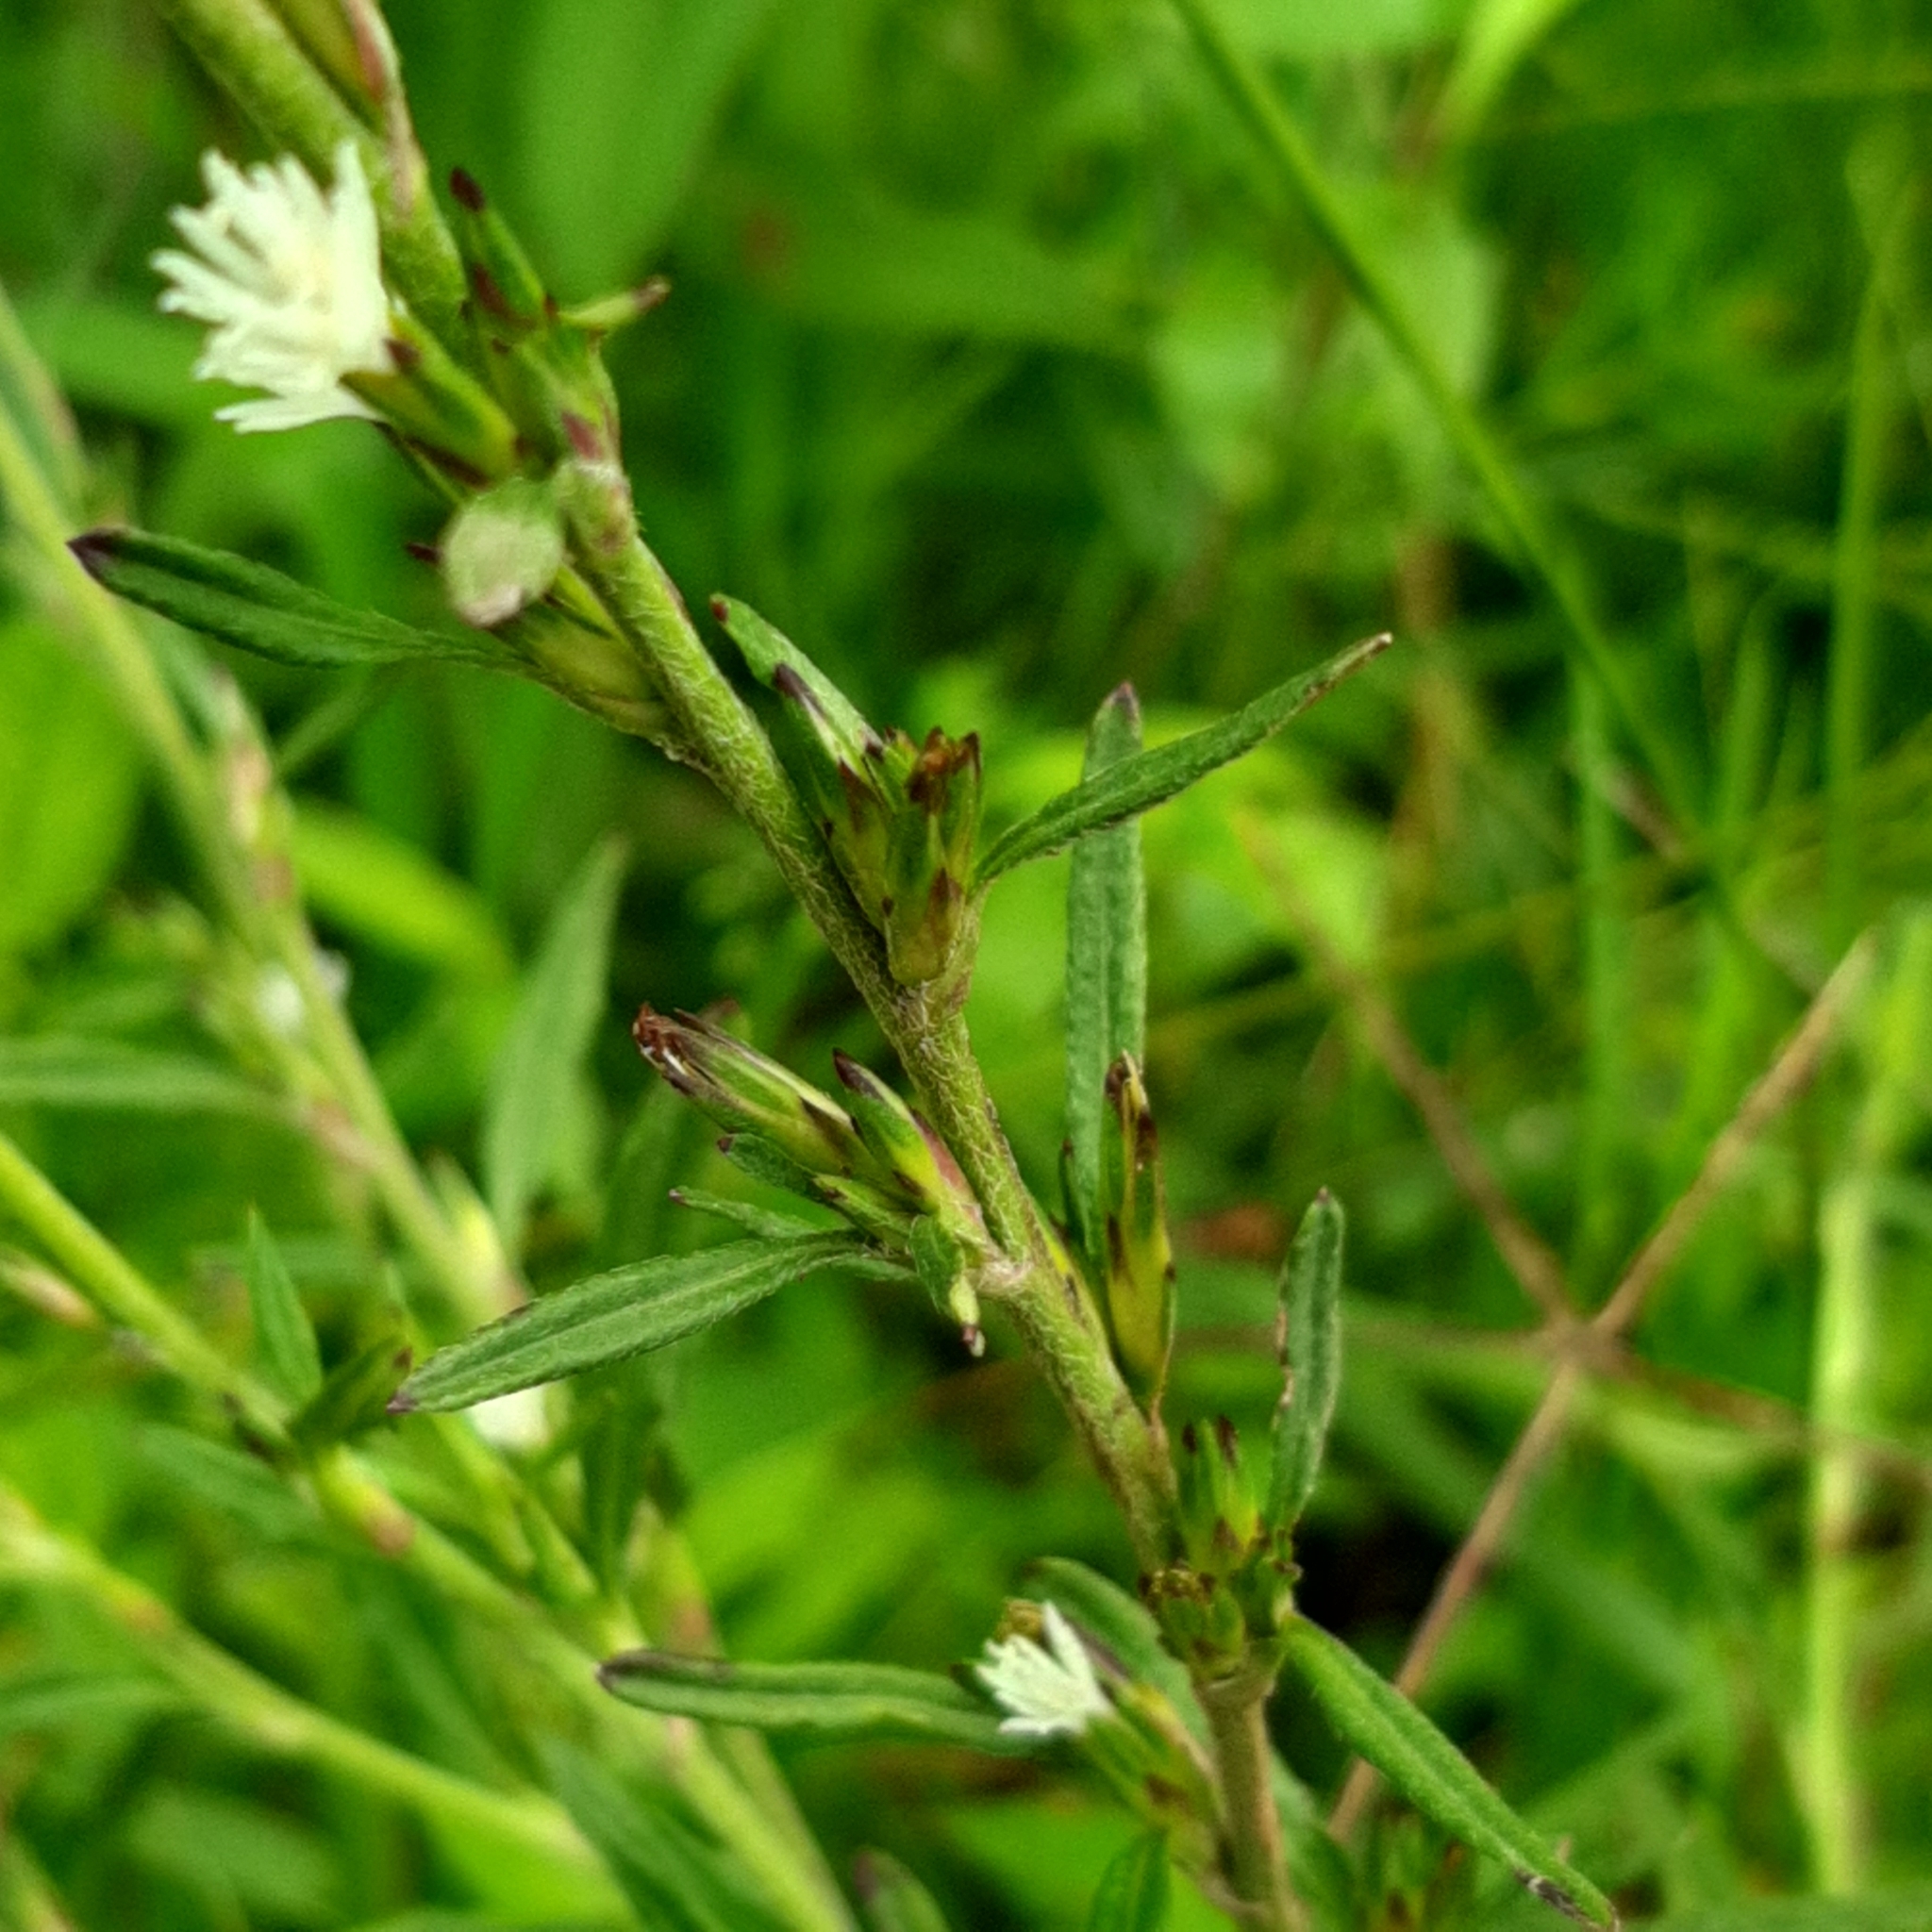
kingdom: Plantae
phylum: Tracheophyta
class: Magnoliopsida
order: Asterales
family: Asteraceae
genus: Pseudelephantopus
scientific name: Pseudelephantopus spicatus
